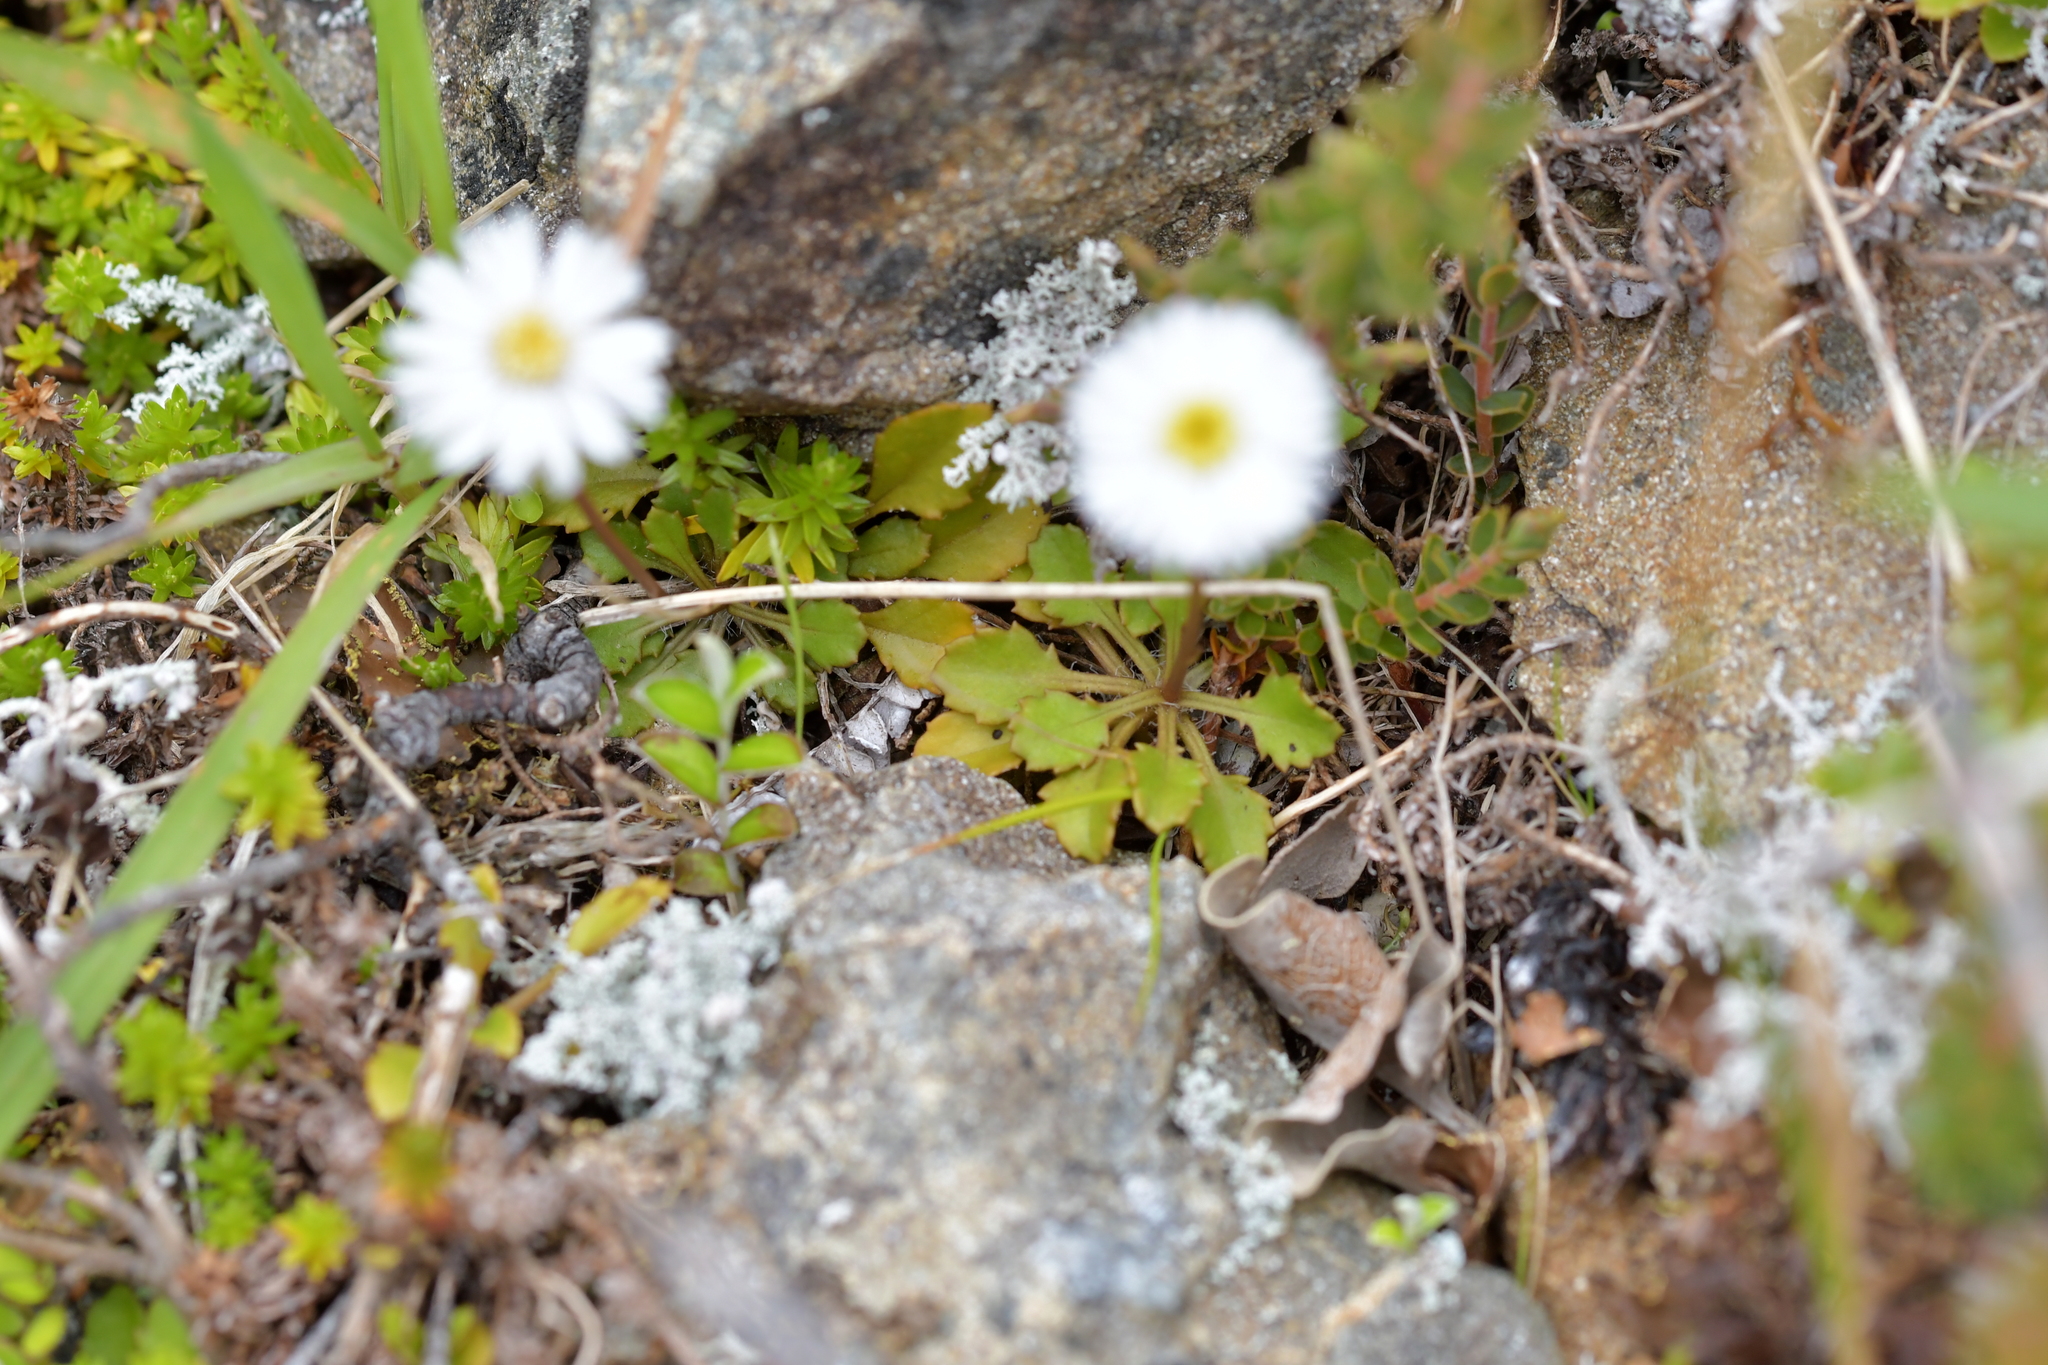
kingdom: Plantae
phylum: Tracheophyta
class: Magnoliopsida
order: Asterales
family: Asteraceae
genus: Lagenophora
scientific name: Lagenophora pumila
